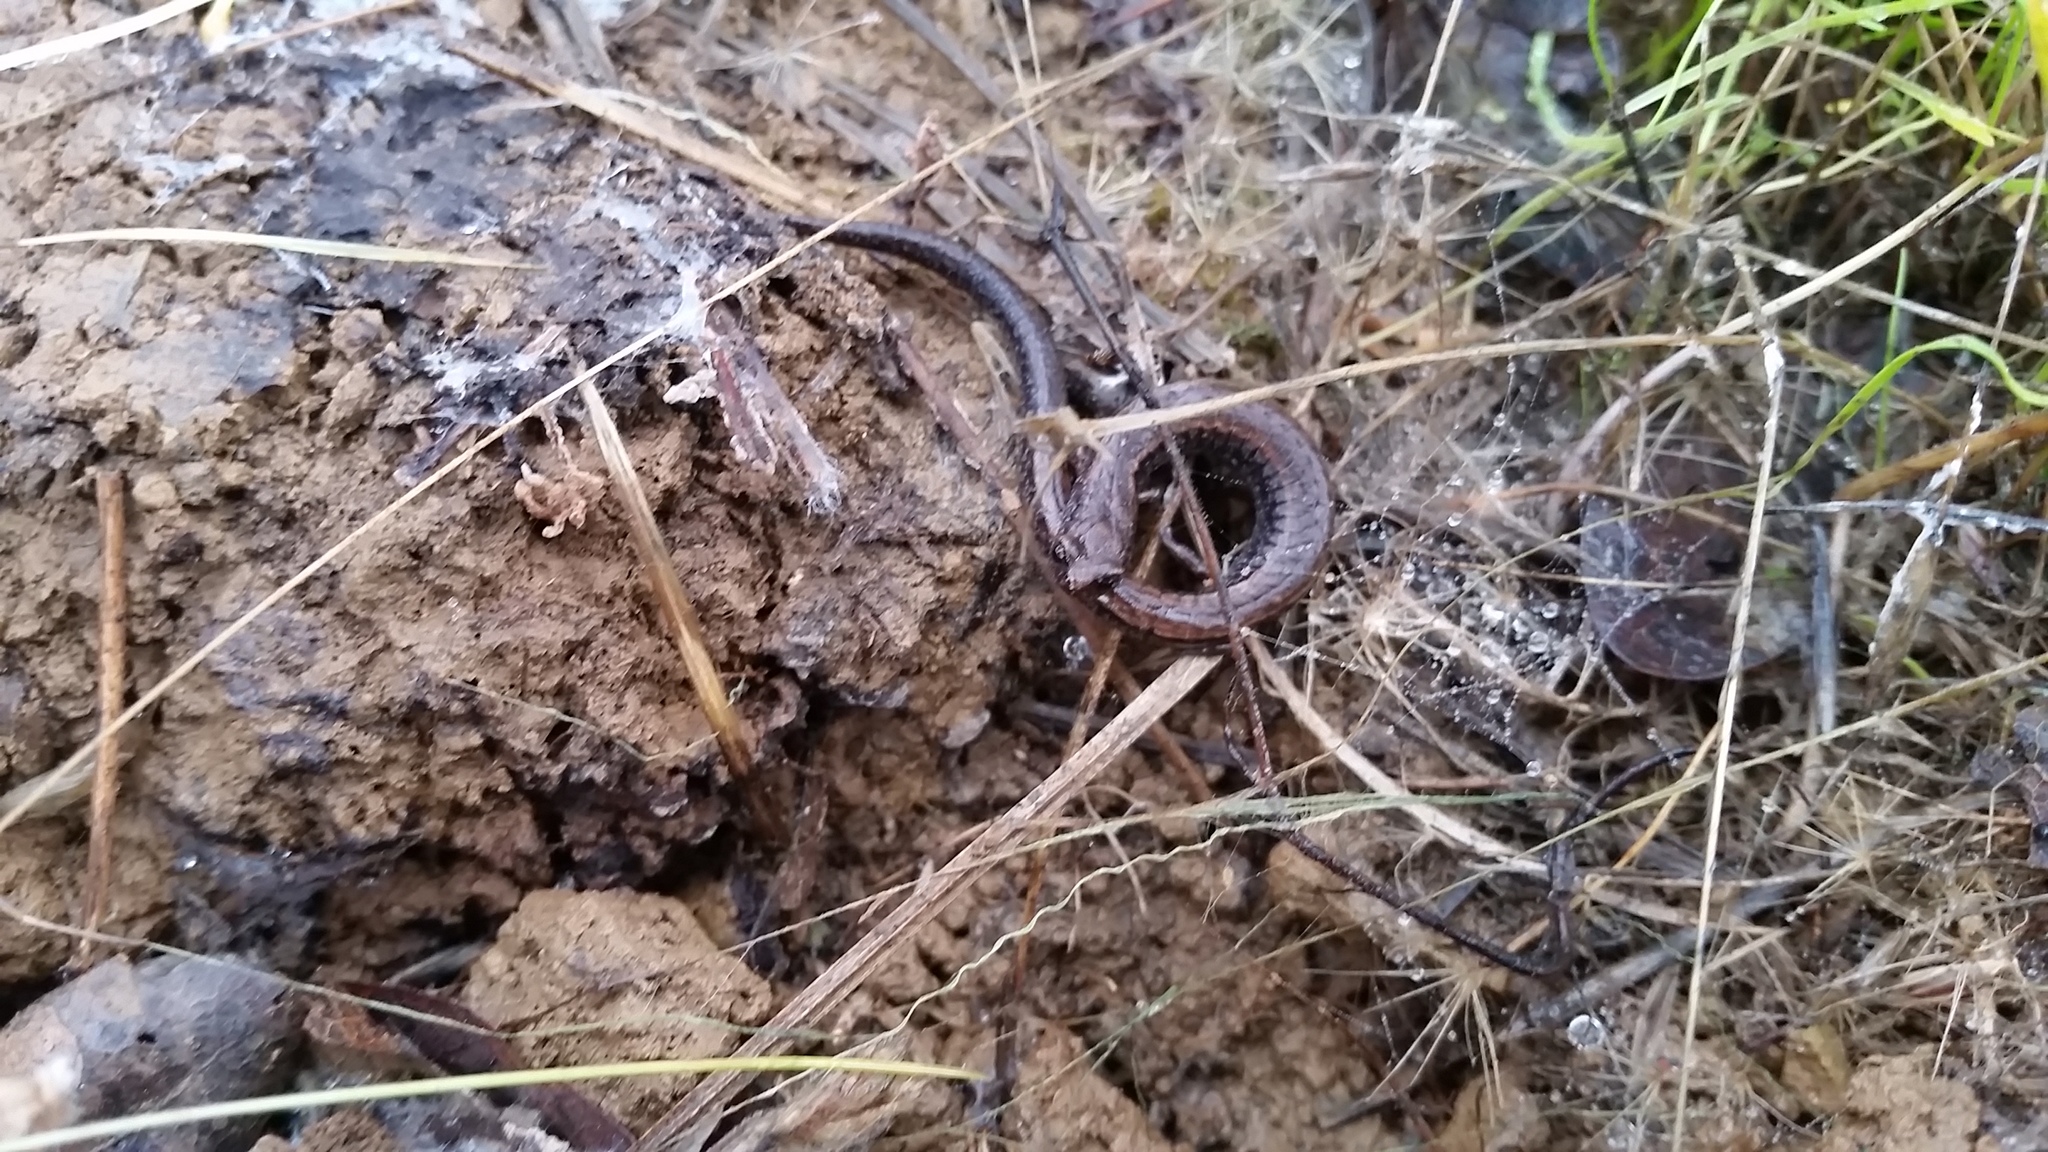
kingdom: Animalia
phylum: Chordata
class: Amphibia
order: Caudata
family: Plethodontidae
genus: Batrachoseps
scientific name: Batrachoseps attenuatus
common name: California slender salamander
